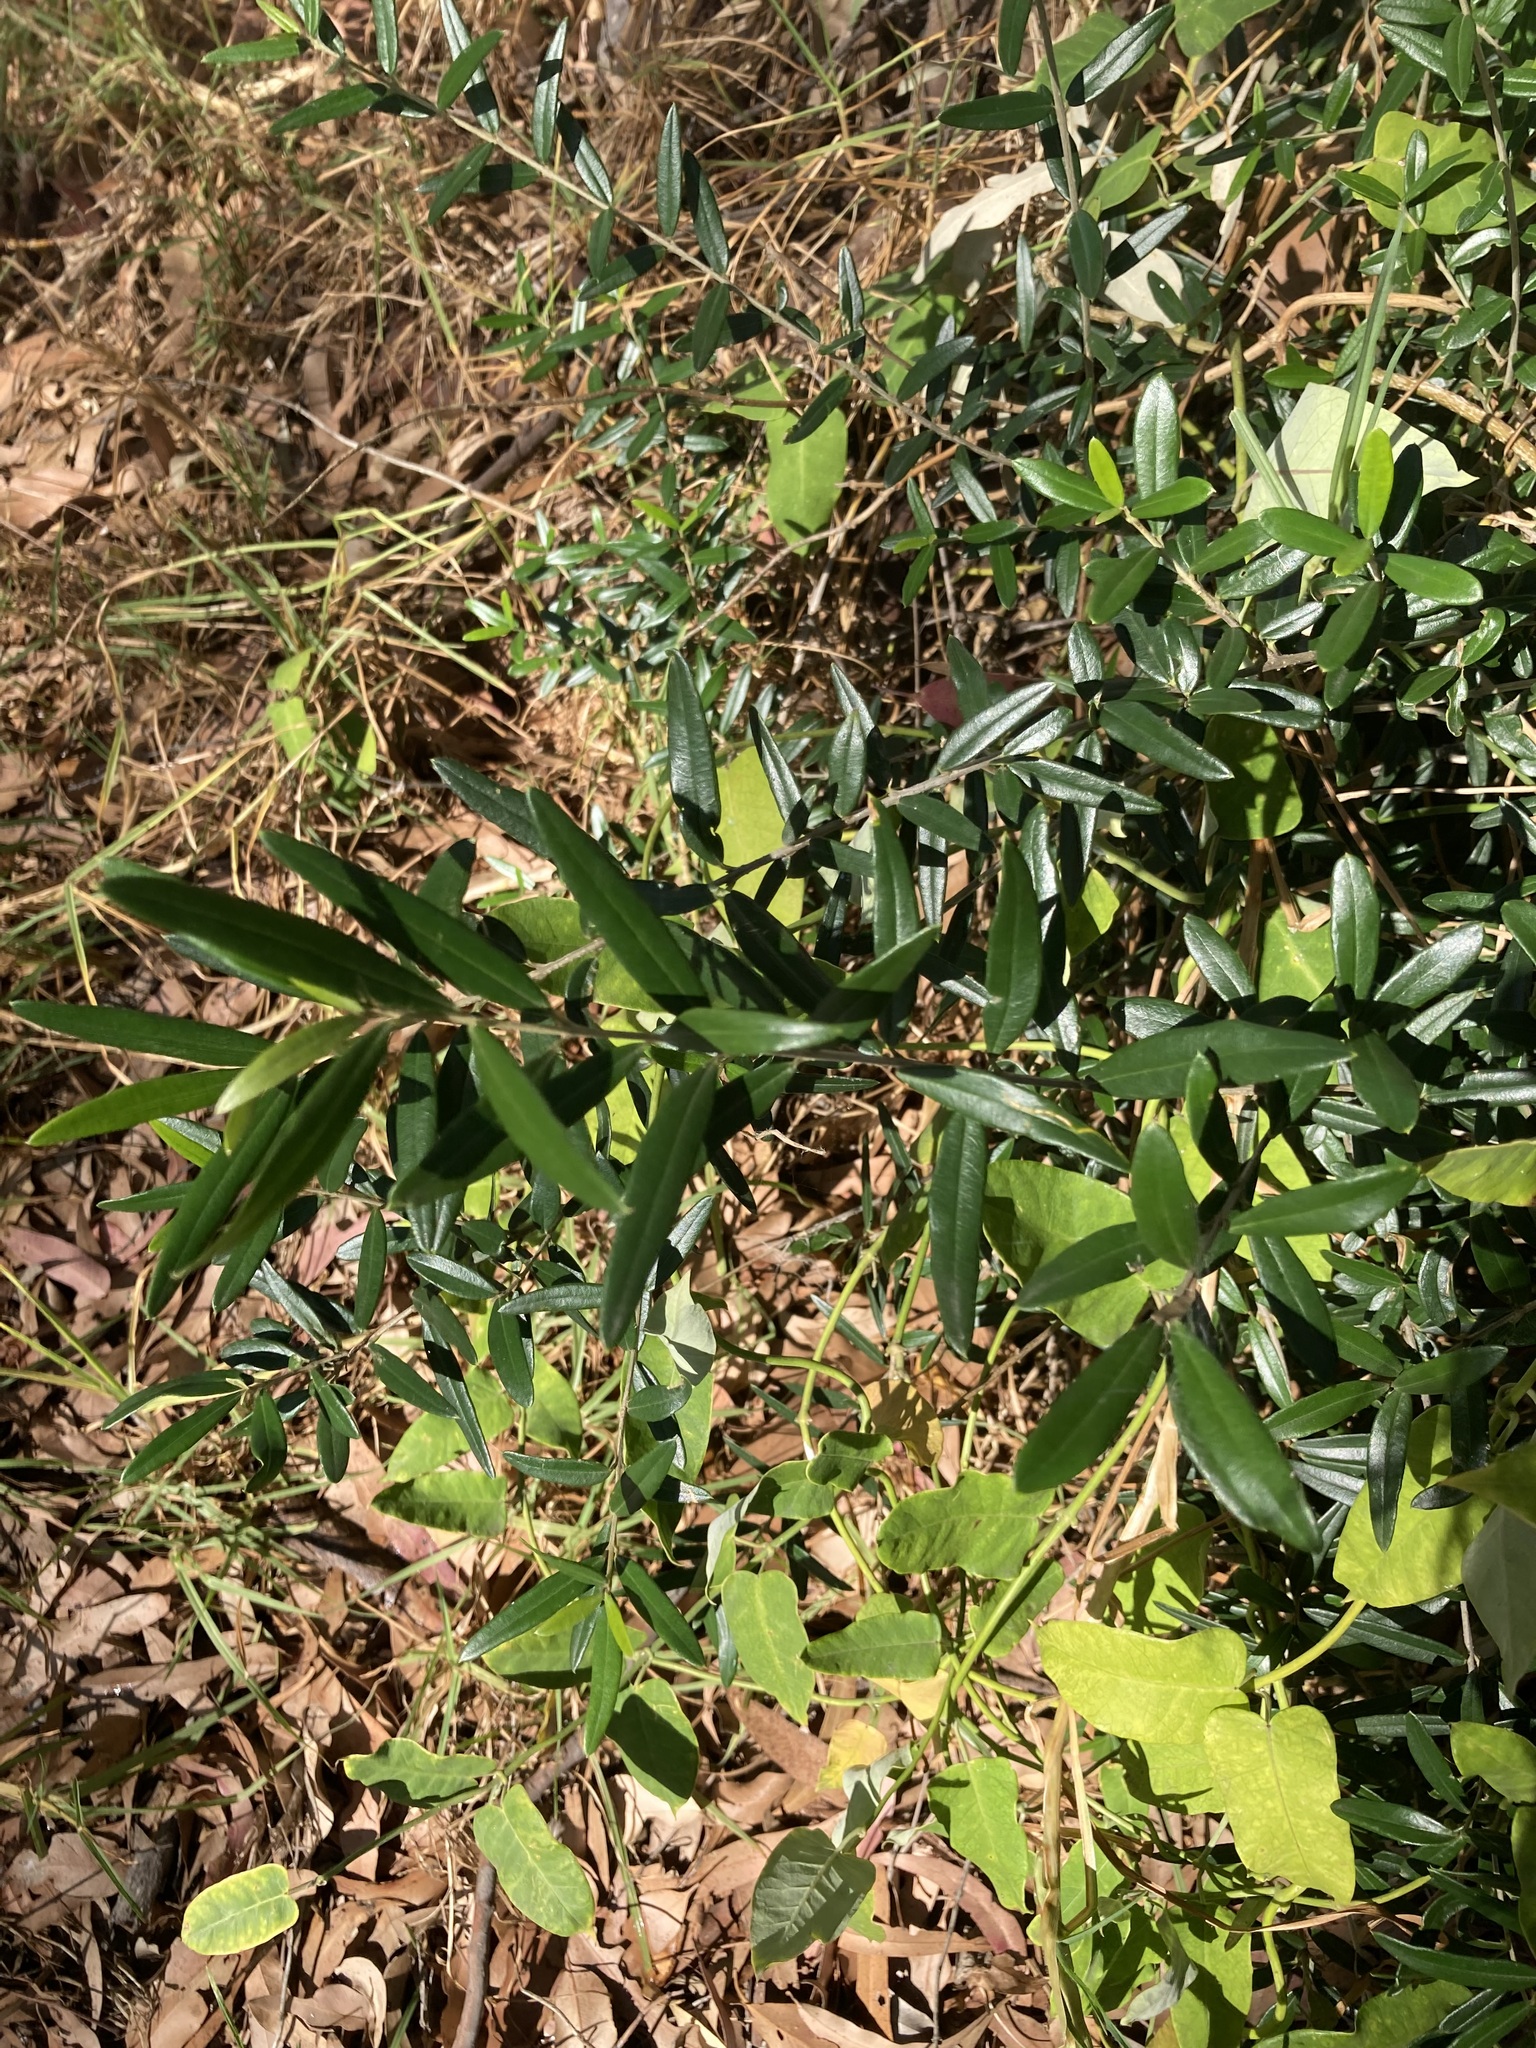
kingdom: Plantae
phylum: Tracheophyta
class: Magnoliopsida
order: Lamiales
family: Oleaceae
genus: Olea
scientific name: Olea europaea
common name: Olive
